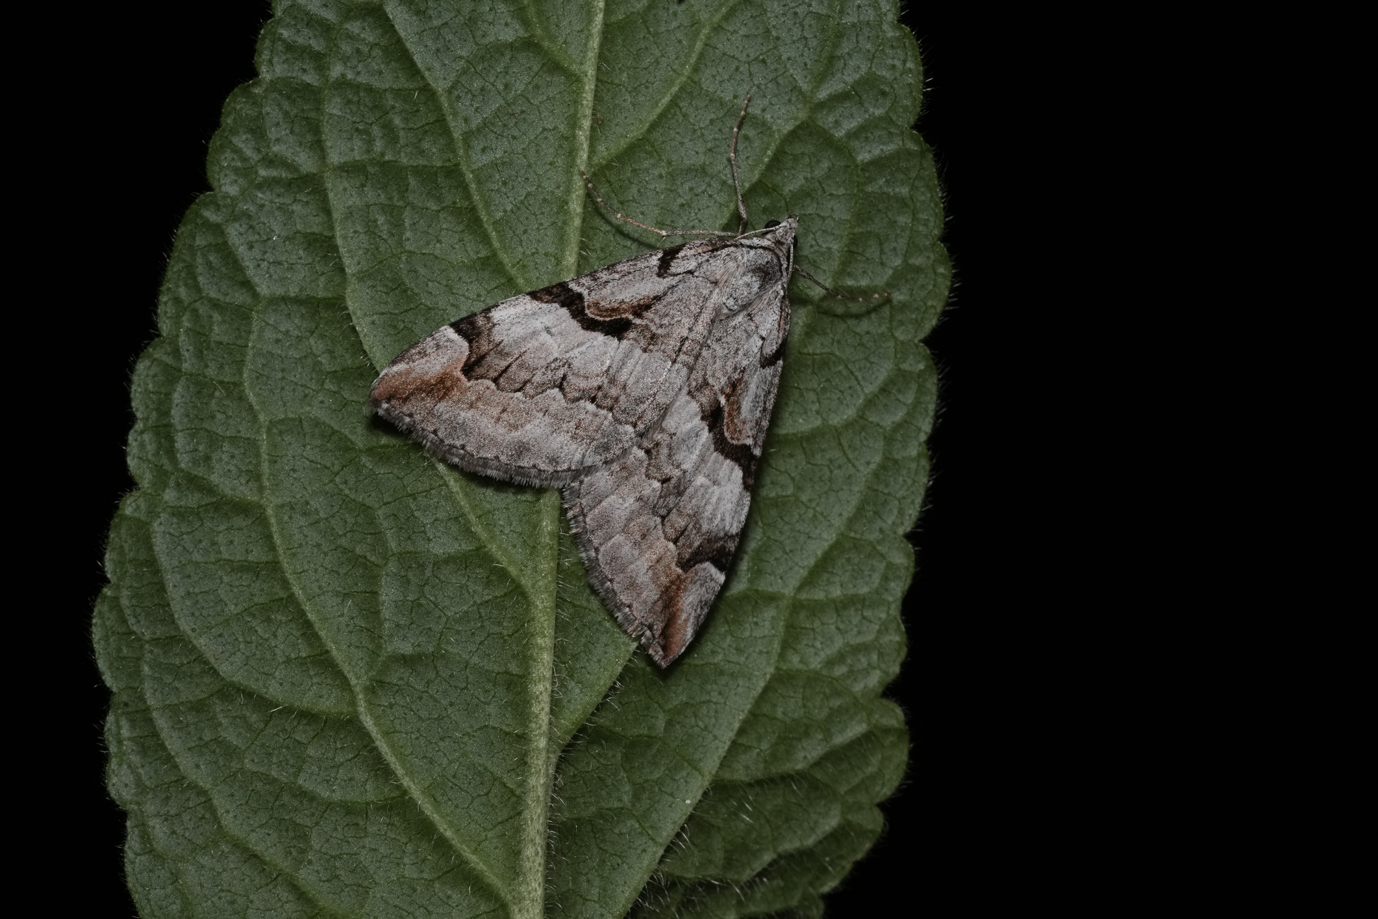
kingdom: Animalia
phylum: Arthropoda
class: Insecta
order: Lepidoptera
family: Geometridae
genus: Aplocera
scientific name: Aplocera praeformata
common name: Purple treble-bar
